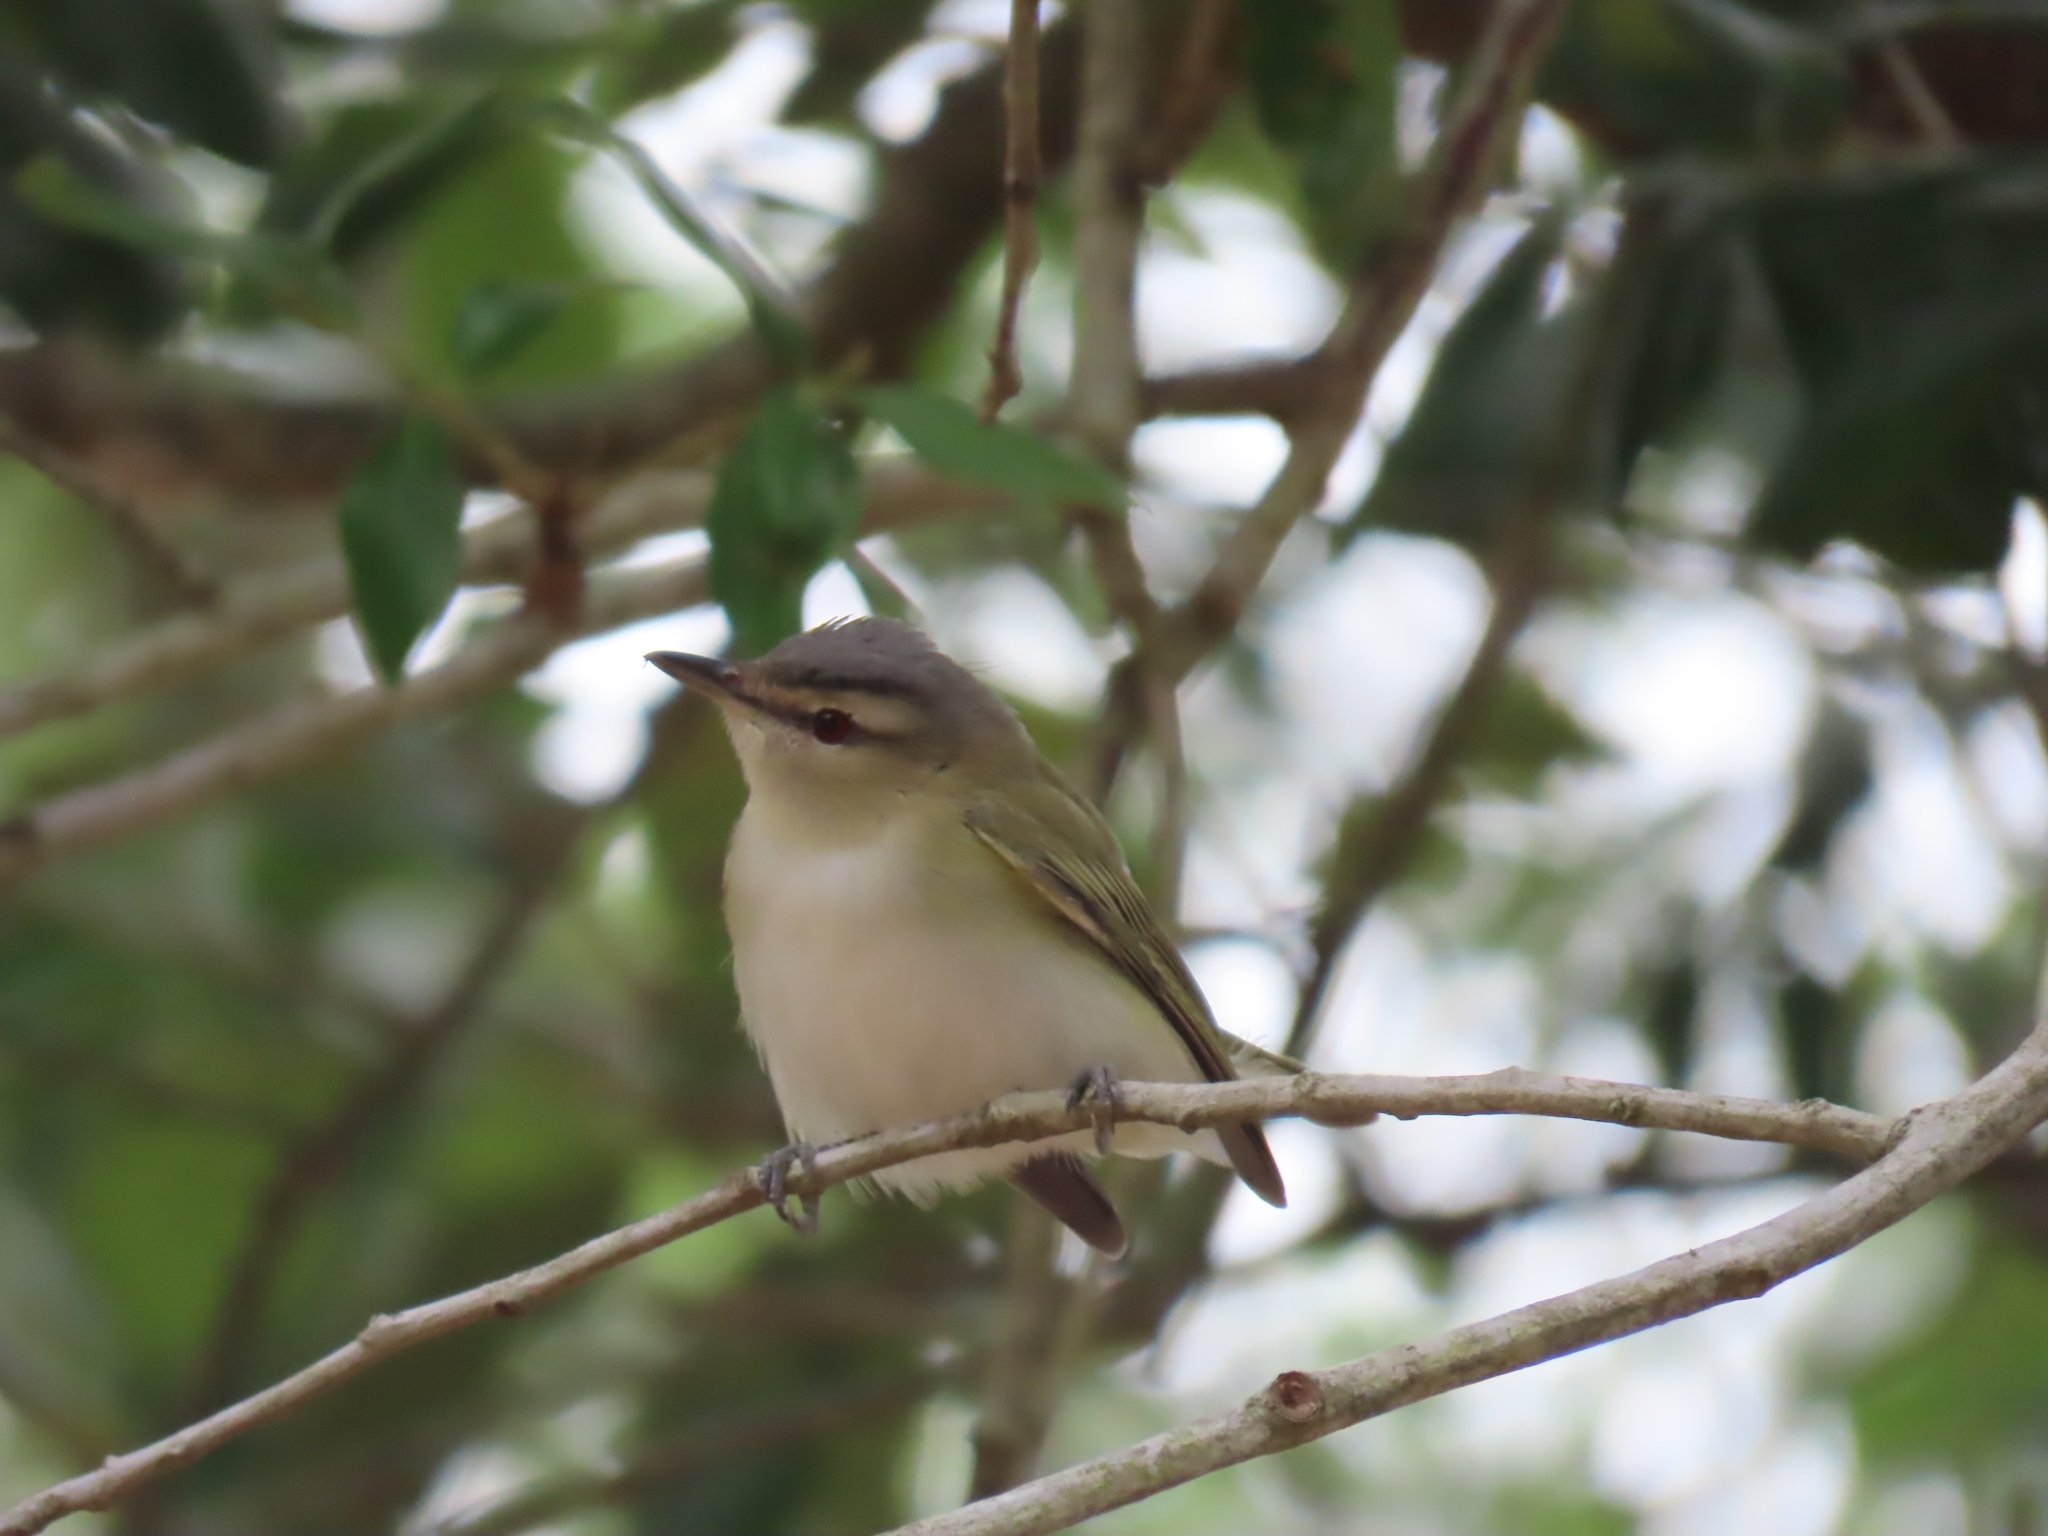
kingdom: Animalia
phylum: Chordata
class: Aves
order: Passeriformes
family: Vireonidae
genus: Vireo
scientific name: Vireo olivaceus
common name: Red-eyed vireo
